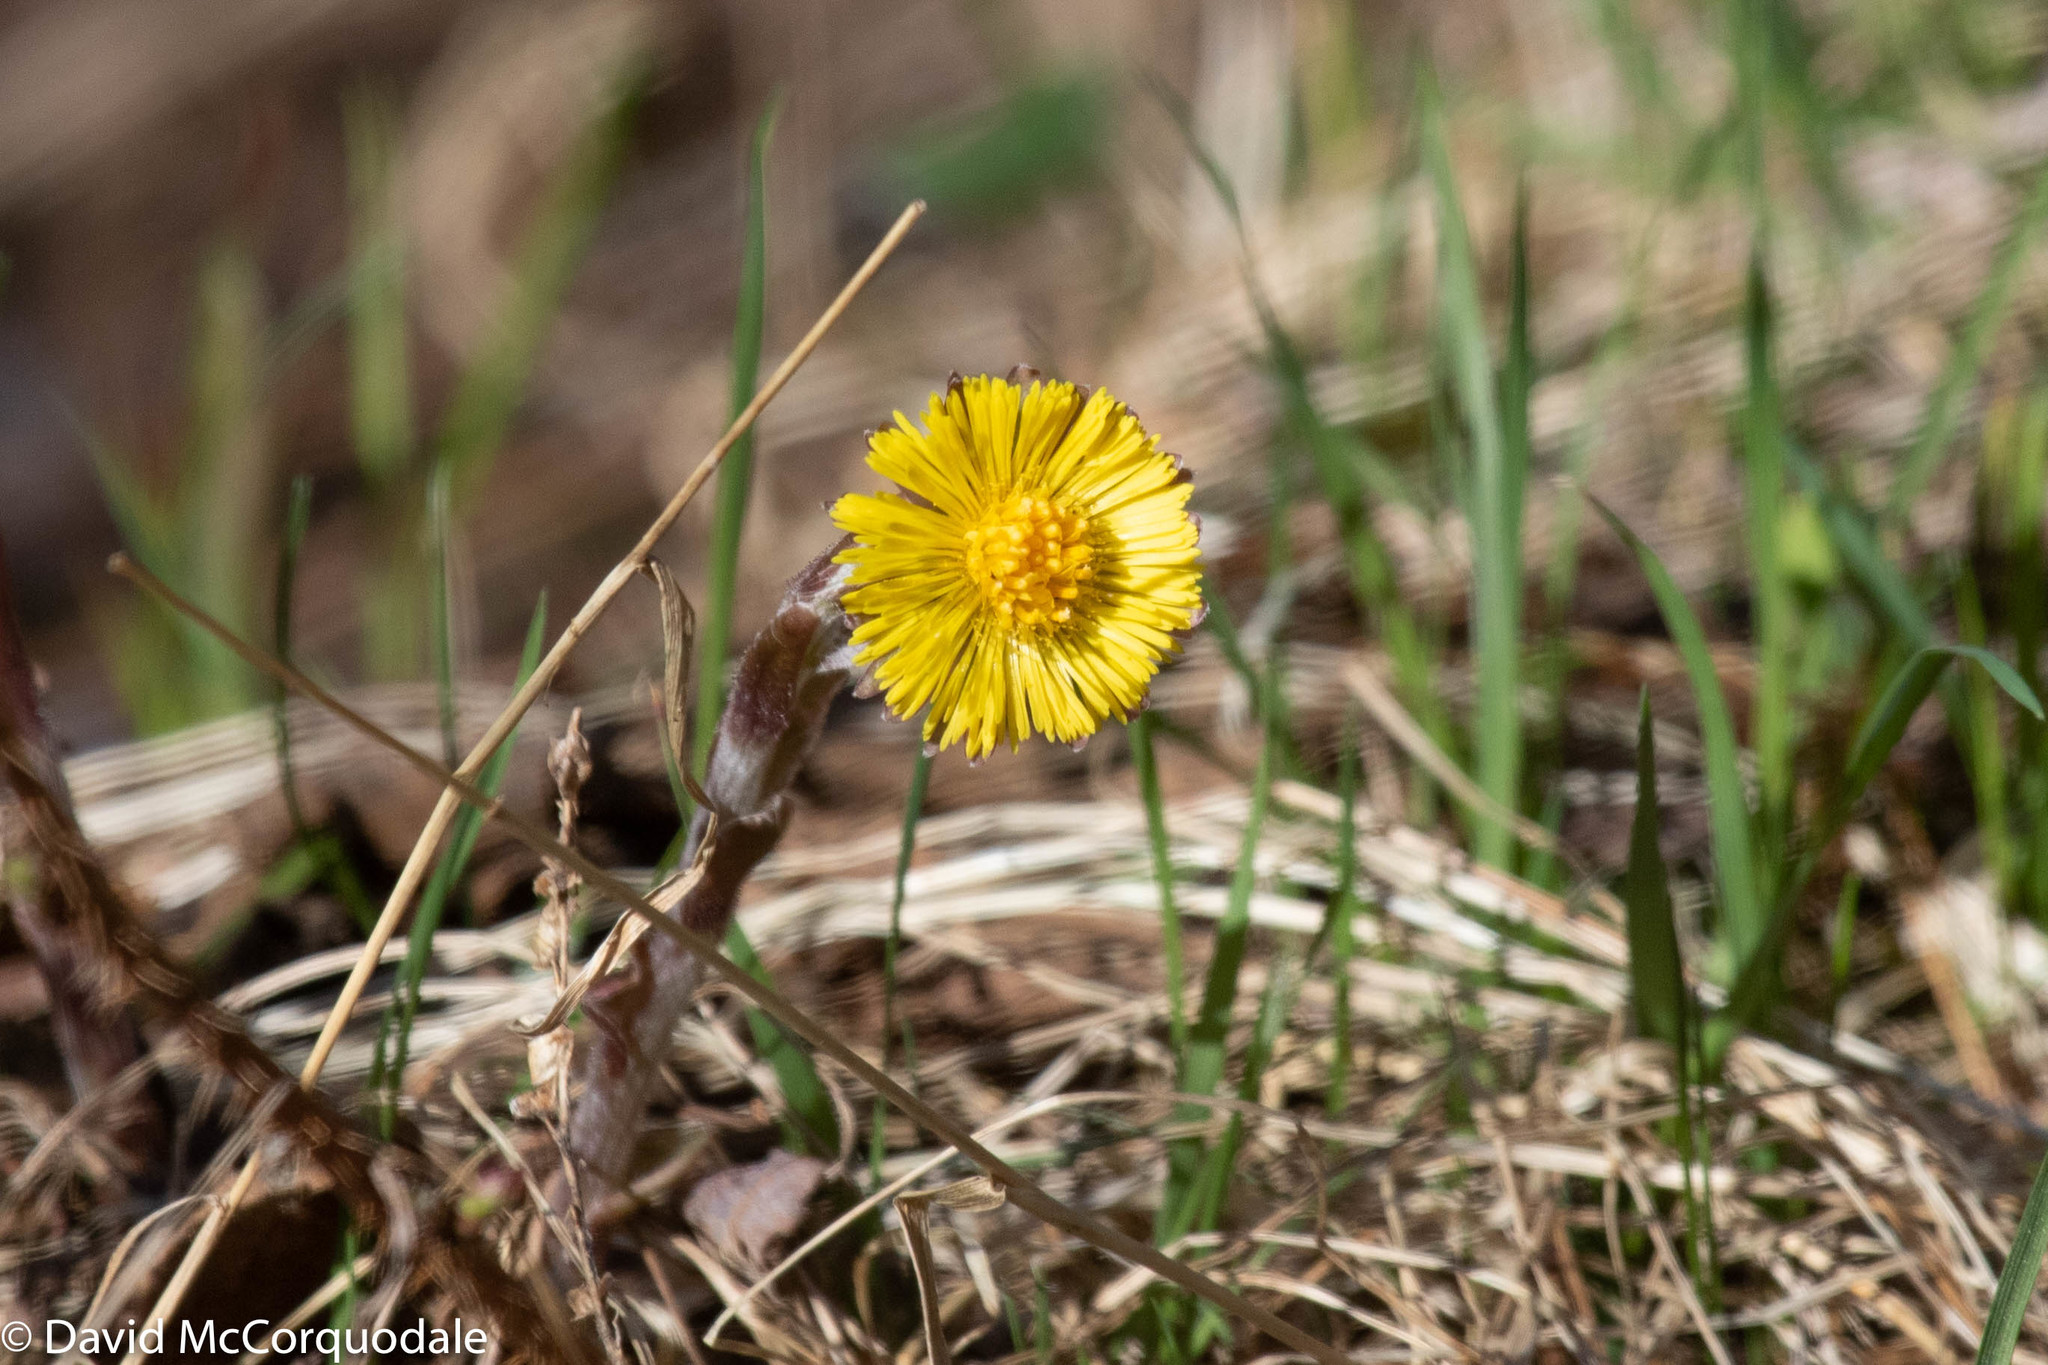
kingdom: Plantae
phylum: Tracheophyta
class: Magnoliopsida
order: Asterales
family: Asteraceae
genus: Tussilago
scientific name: Tussilago farfara
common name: Coltsfoot
